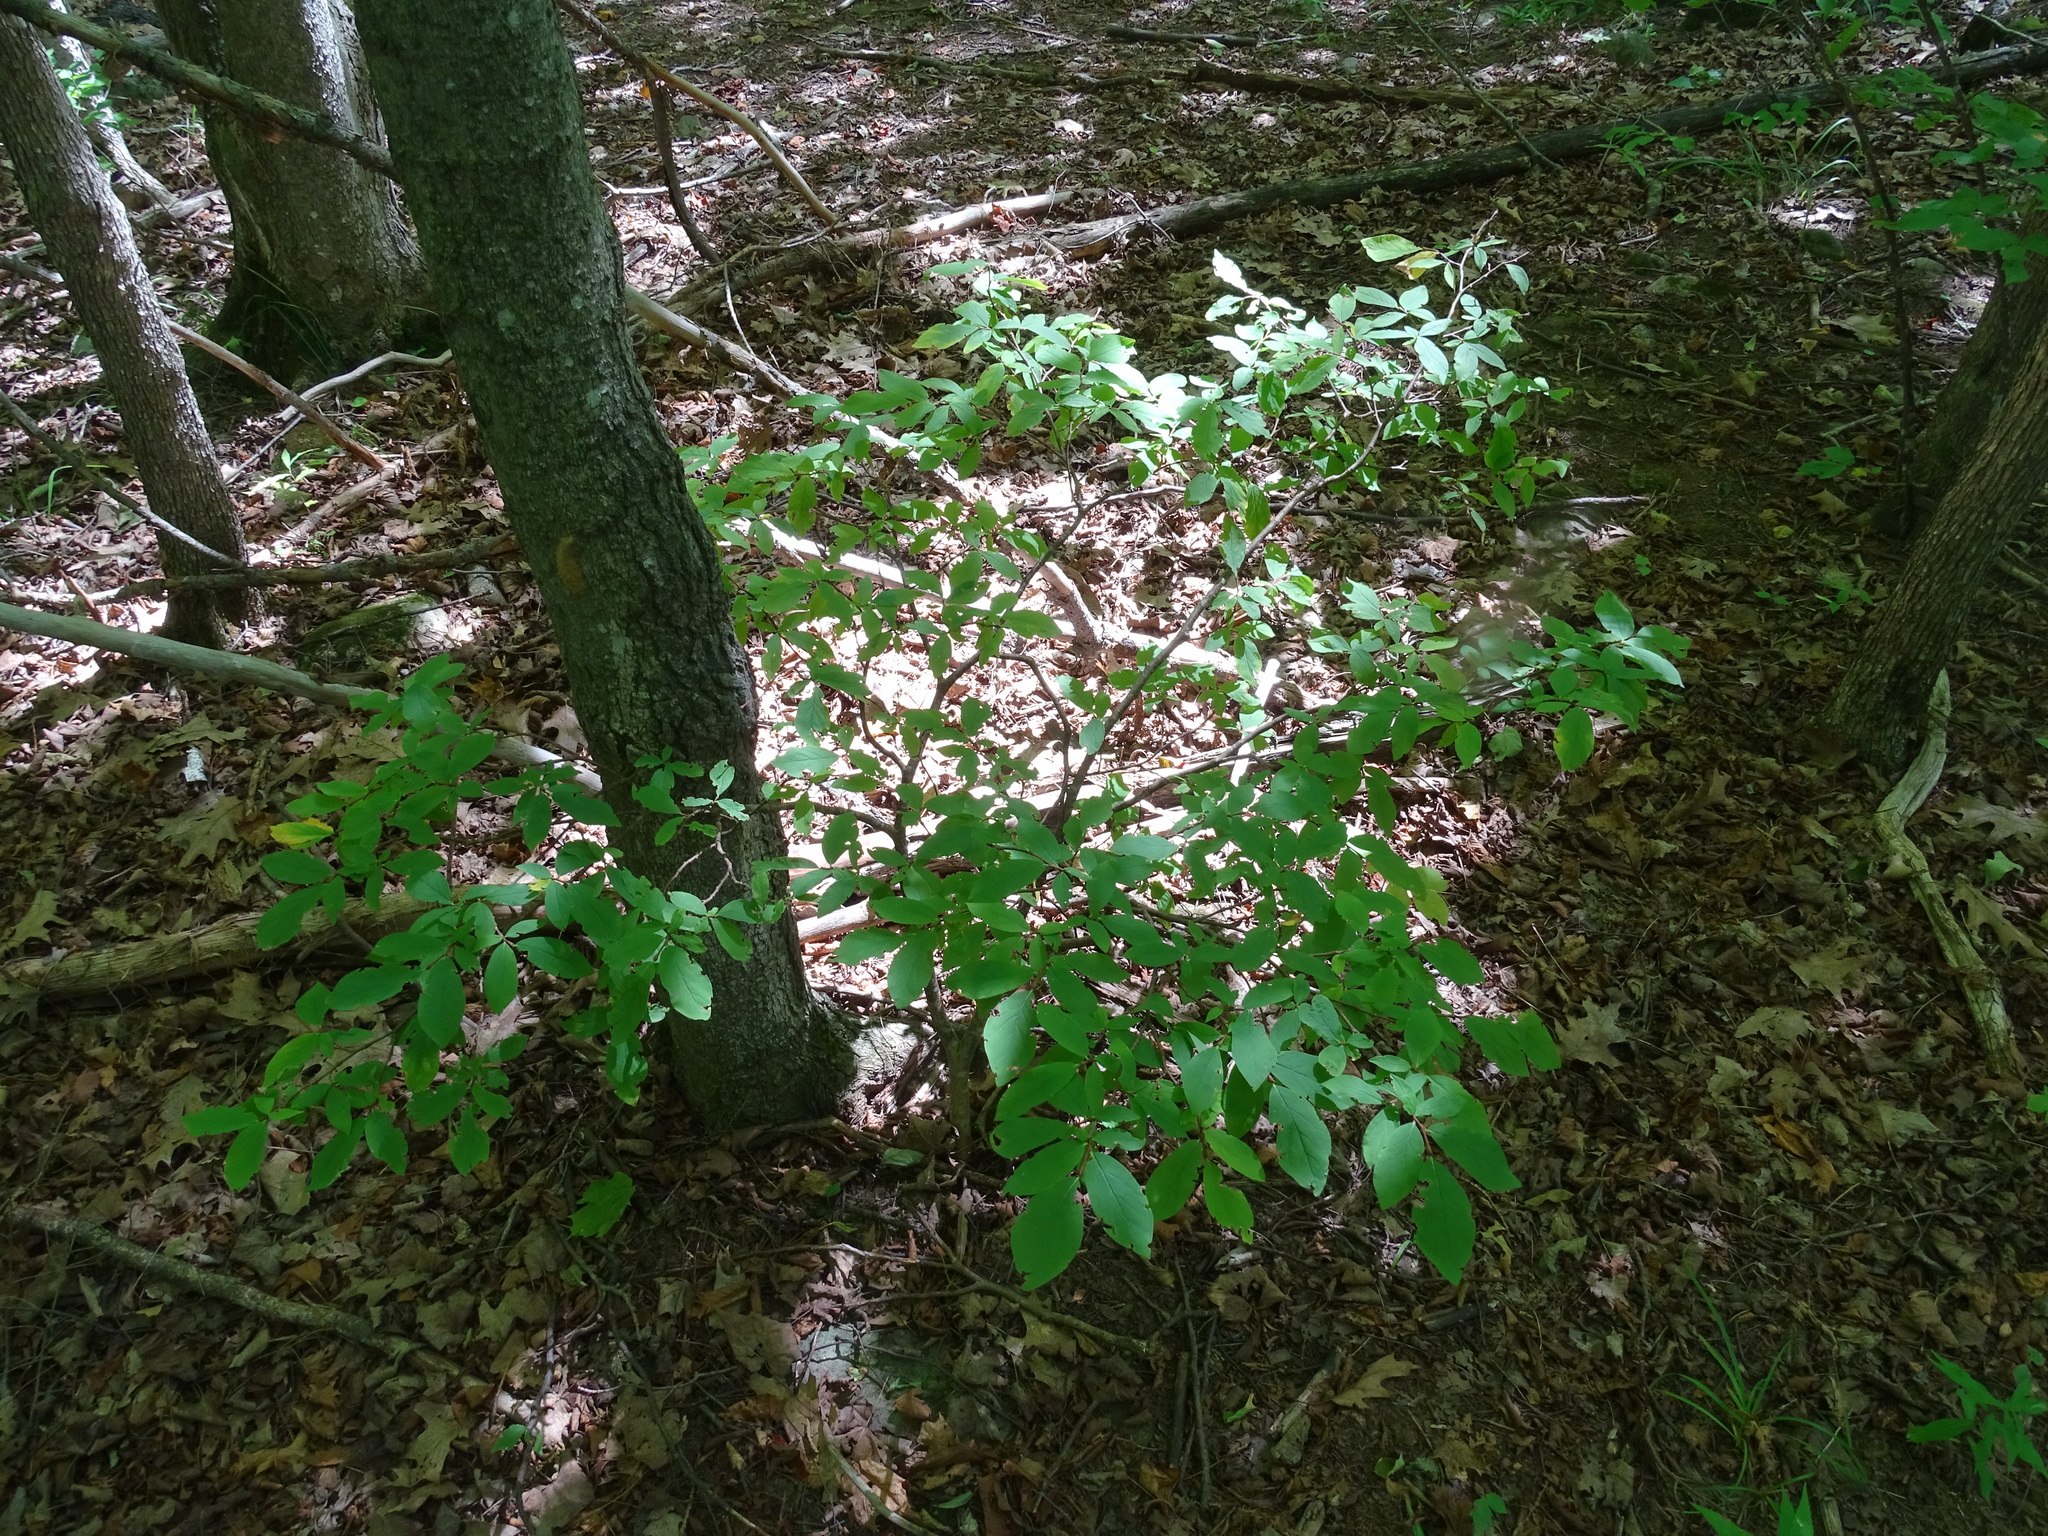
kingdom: Plantae
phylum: Tracheophyta
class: Magnoliopsida
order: Malvales
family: Thymelaeaceae
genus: Dirca
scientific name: Dirca palustris
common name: Leatherwood
